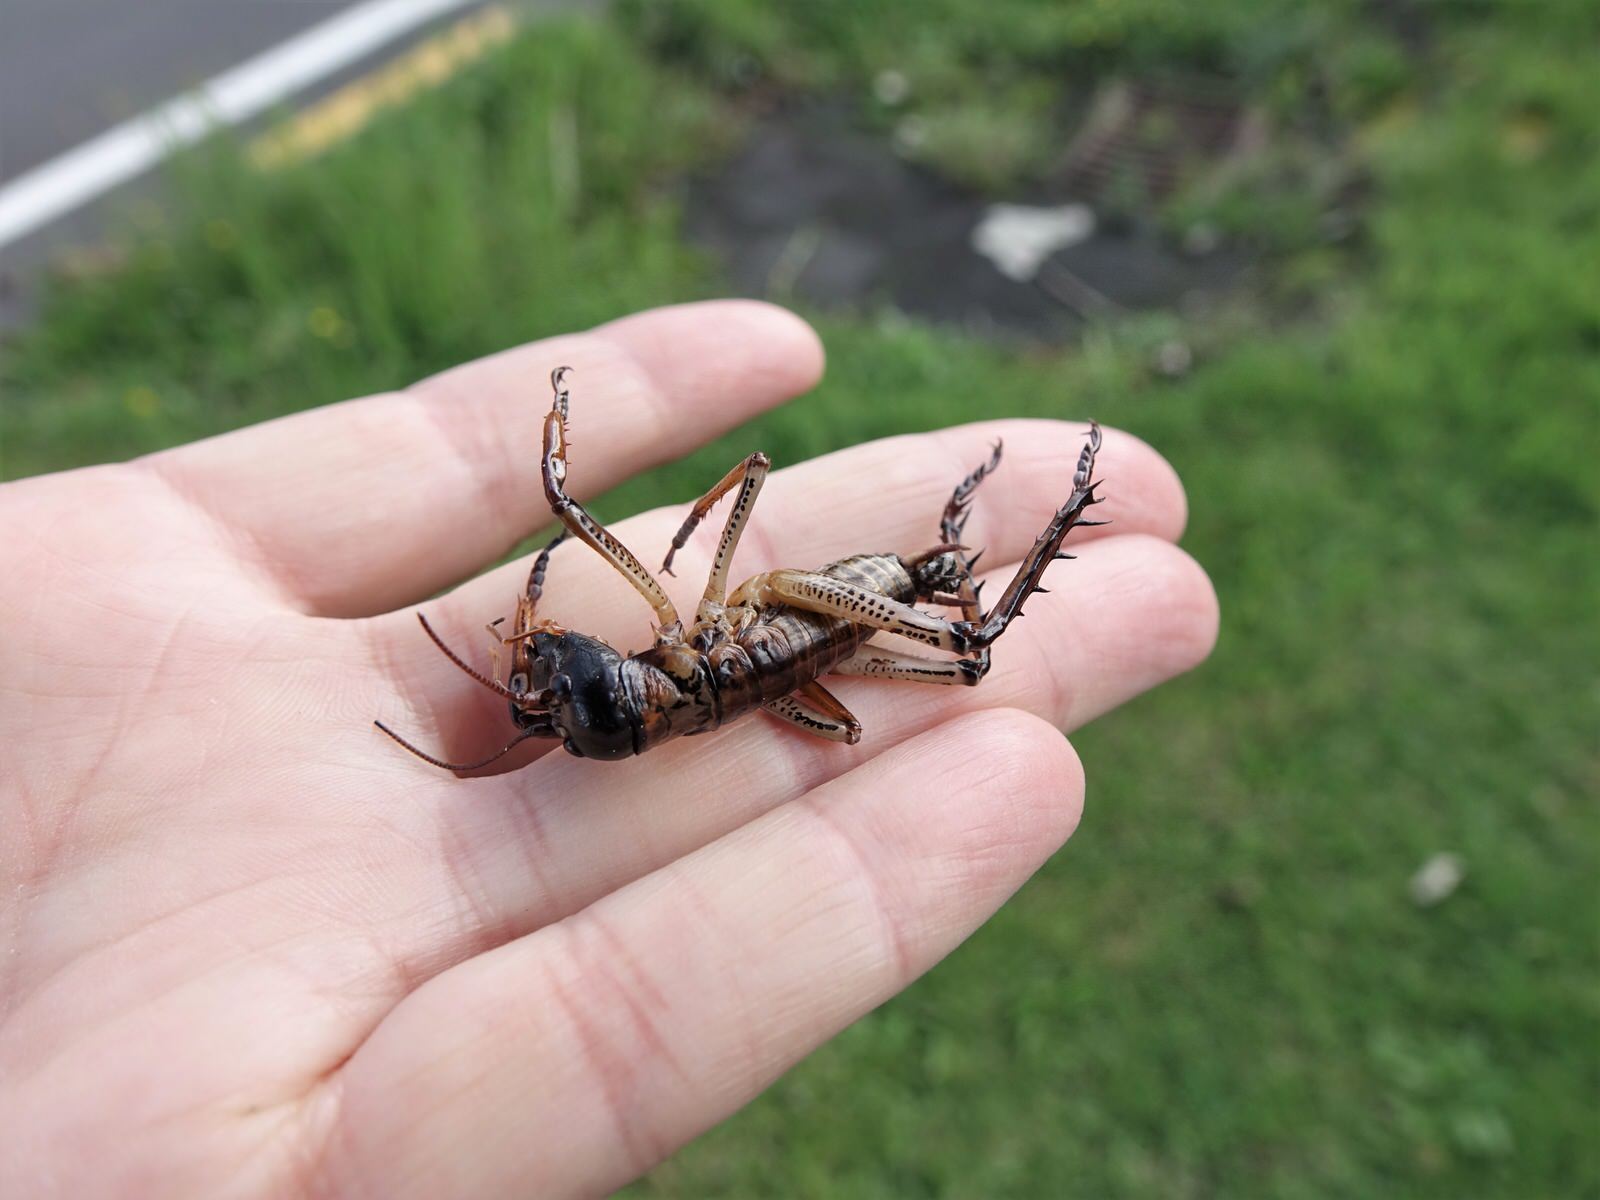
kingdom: Animalia
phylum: Arthropoda
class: Insecta
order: Orthoptera
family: Anostostomatidae
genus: Hemideina
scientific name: Hemideina thoracica
